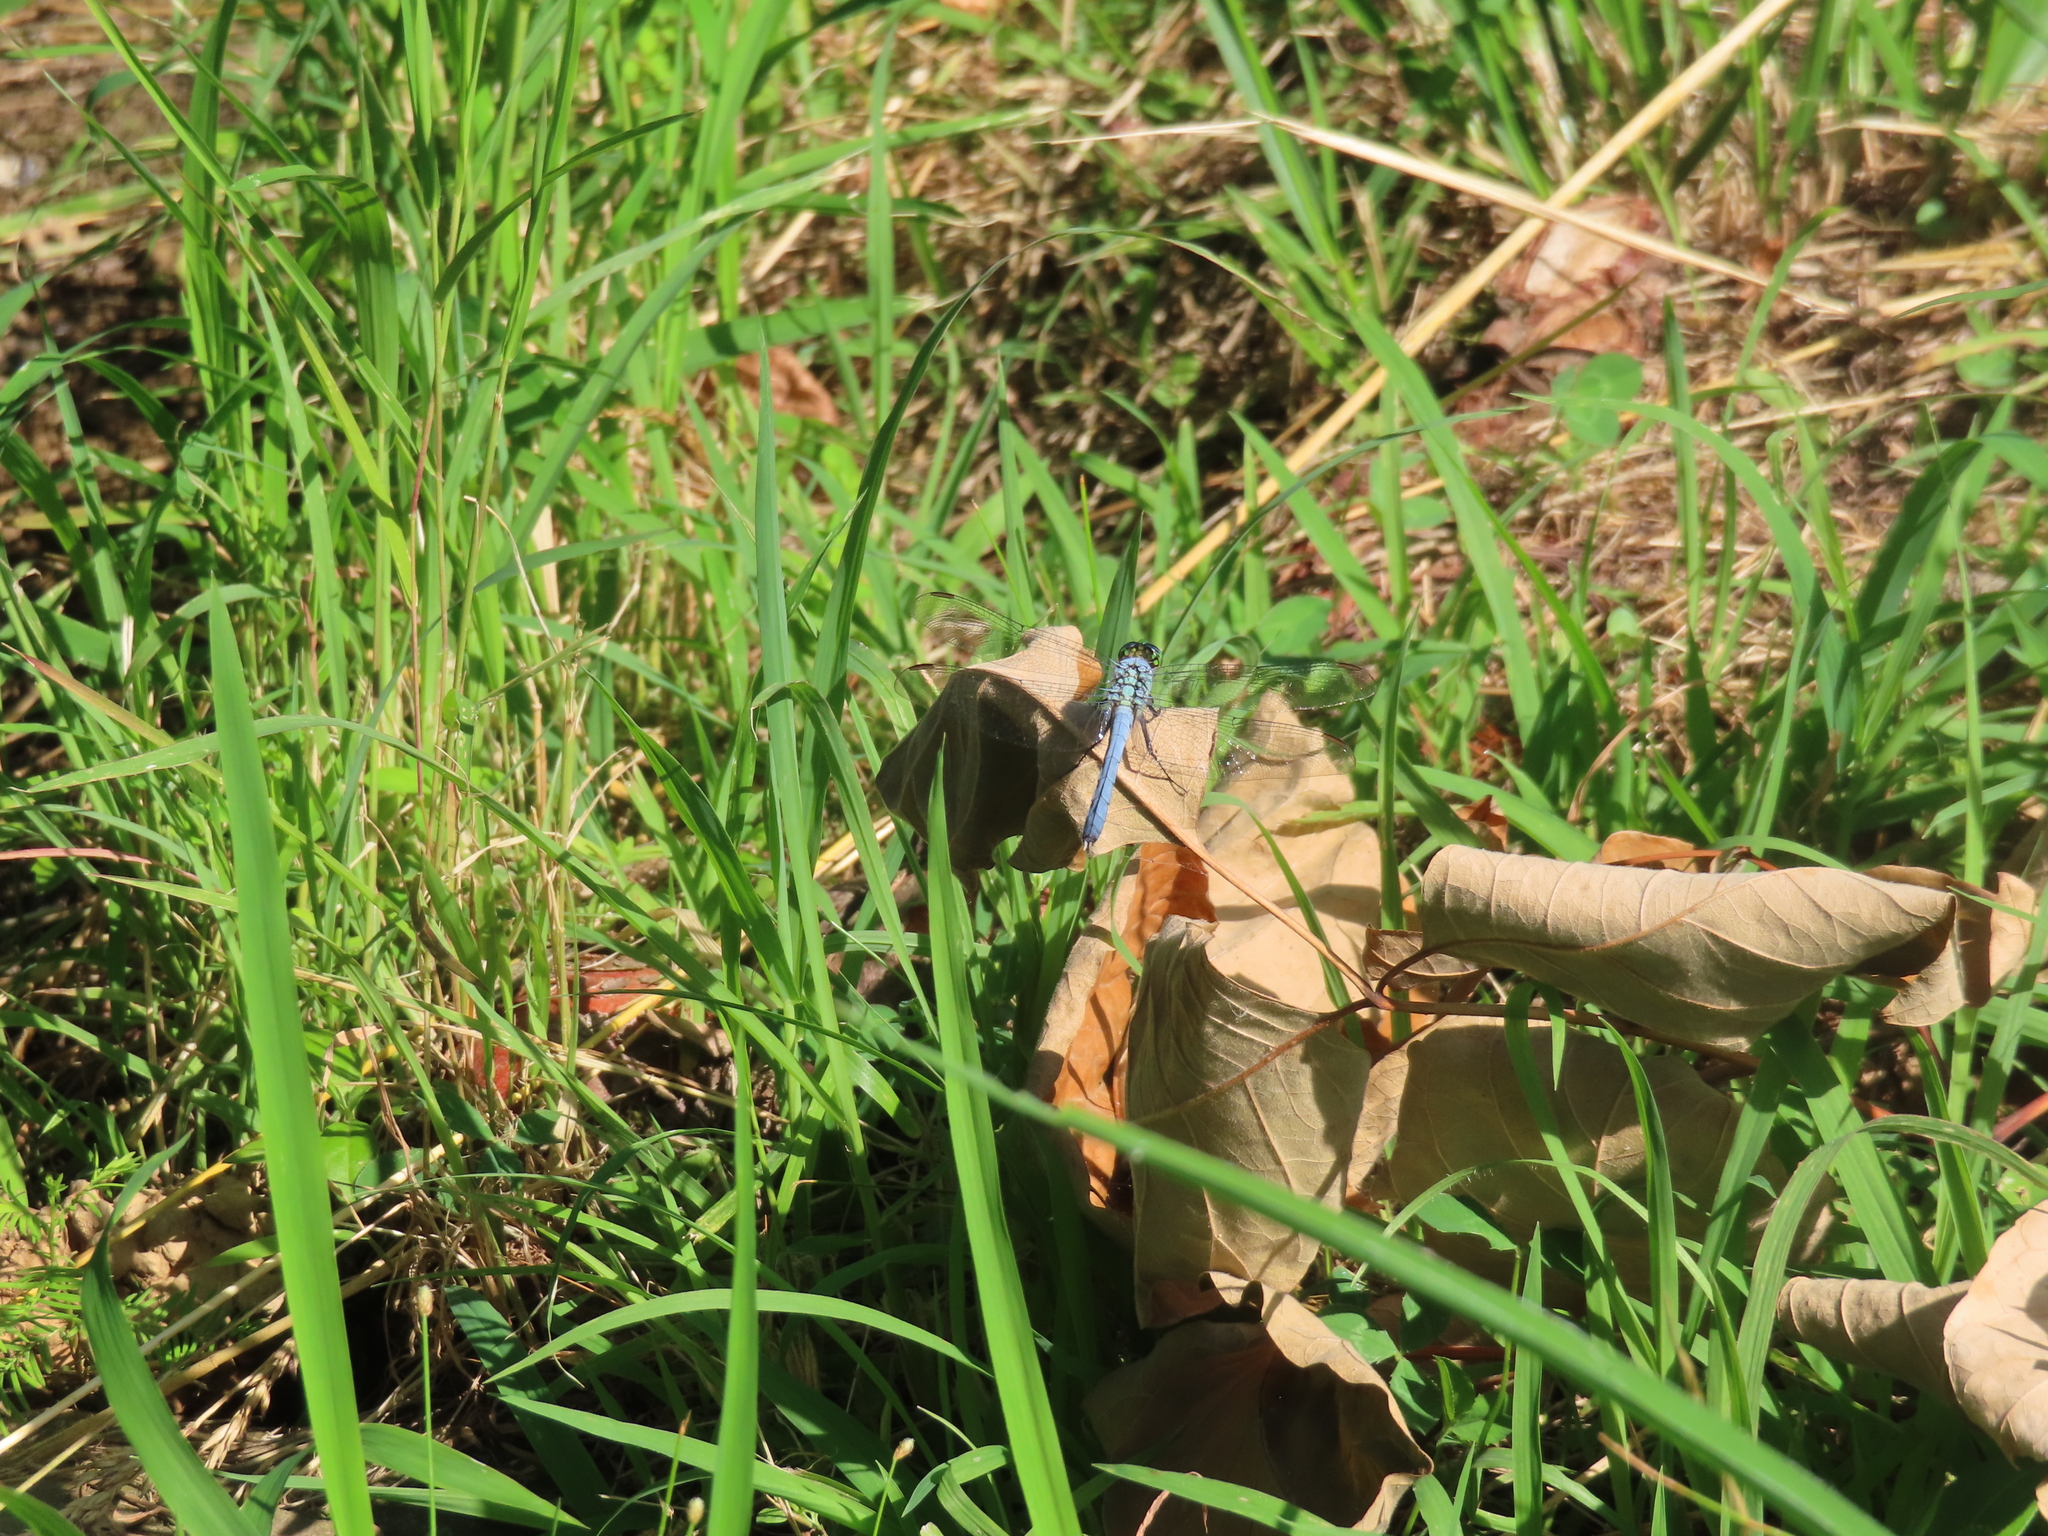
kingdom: Animalia
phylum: Arthropoda
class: Insecta
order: Odonata
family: Libellulidae
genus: Erythemis
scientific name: Erythemis simplicicollis
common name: Eastern pondhawk
